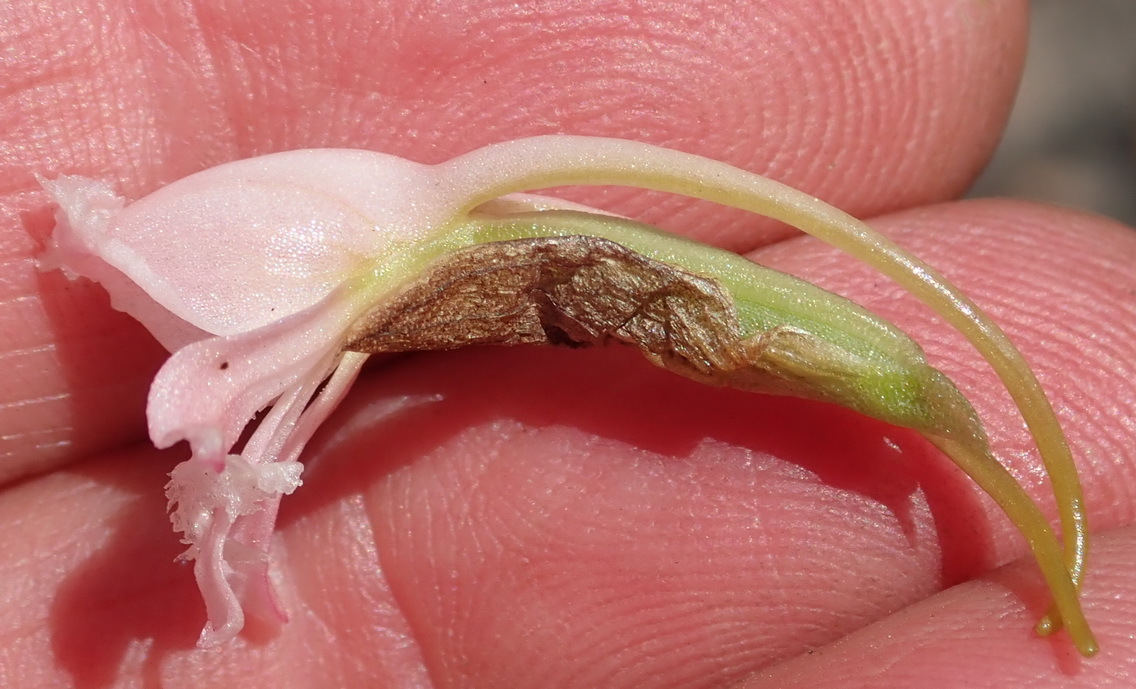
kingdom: Plantae
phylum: Tracheophyta
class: Liliopsida
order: Asparagales
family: Orchidaceae
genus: Satyrium
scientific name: Satyrium membranaceum
